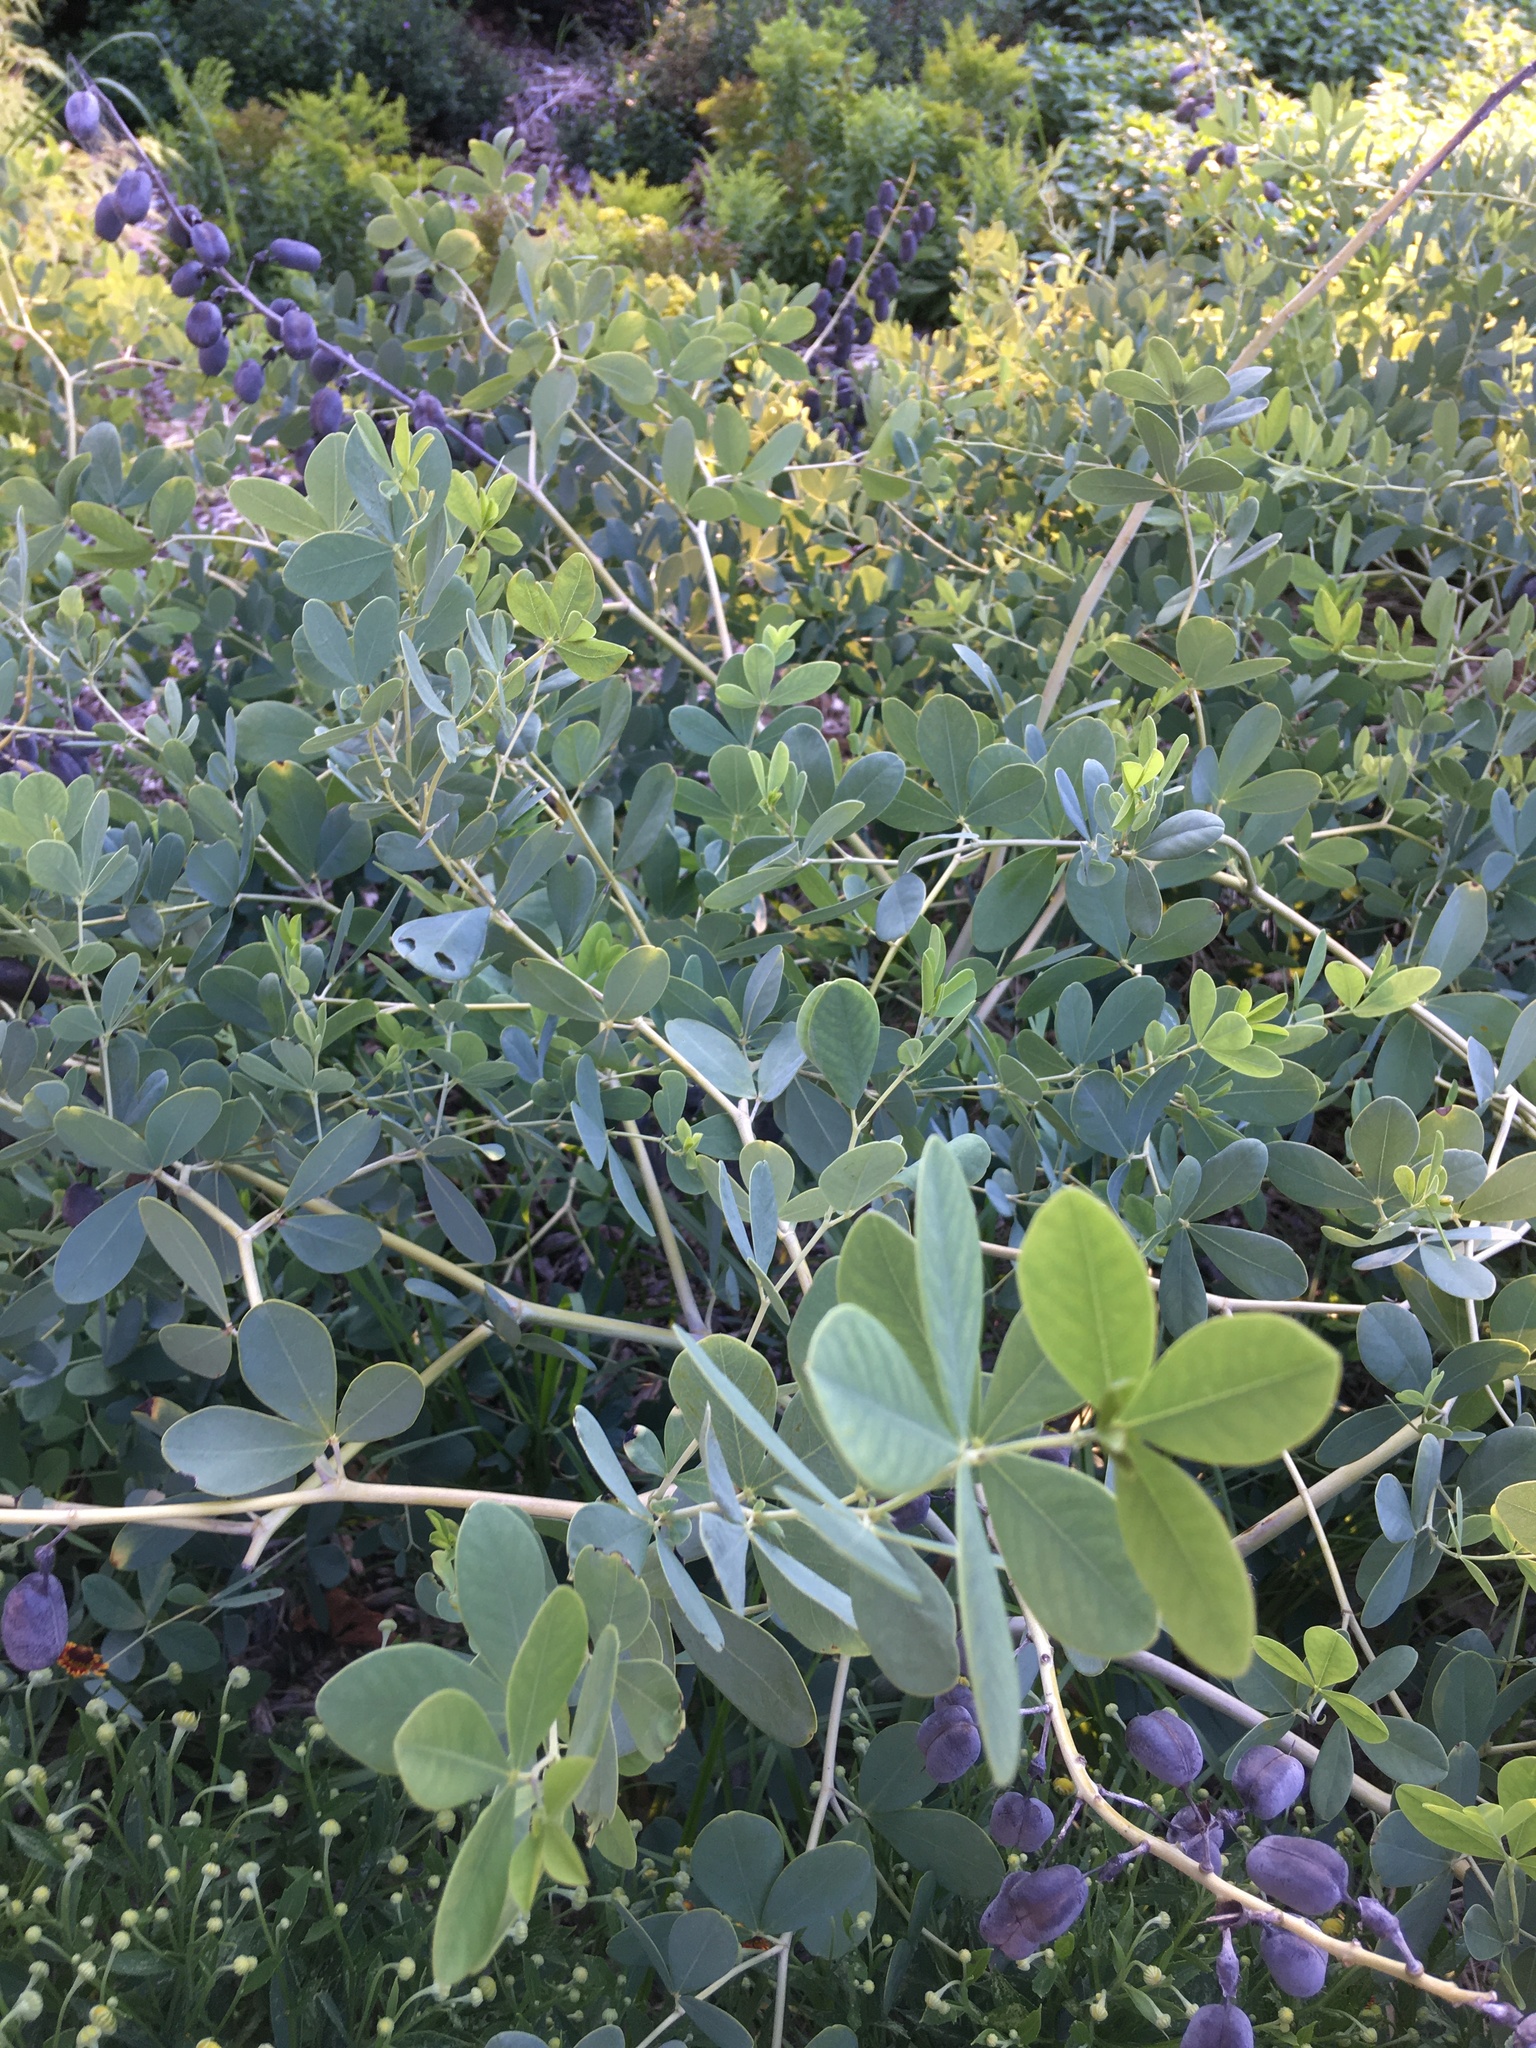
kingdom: Plantae
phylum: Tracheophyta
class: Magnoliopsida
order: Fabales
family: Fabaceae
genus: Baptisia
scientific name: Baptisia alba
